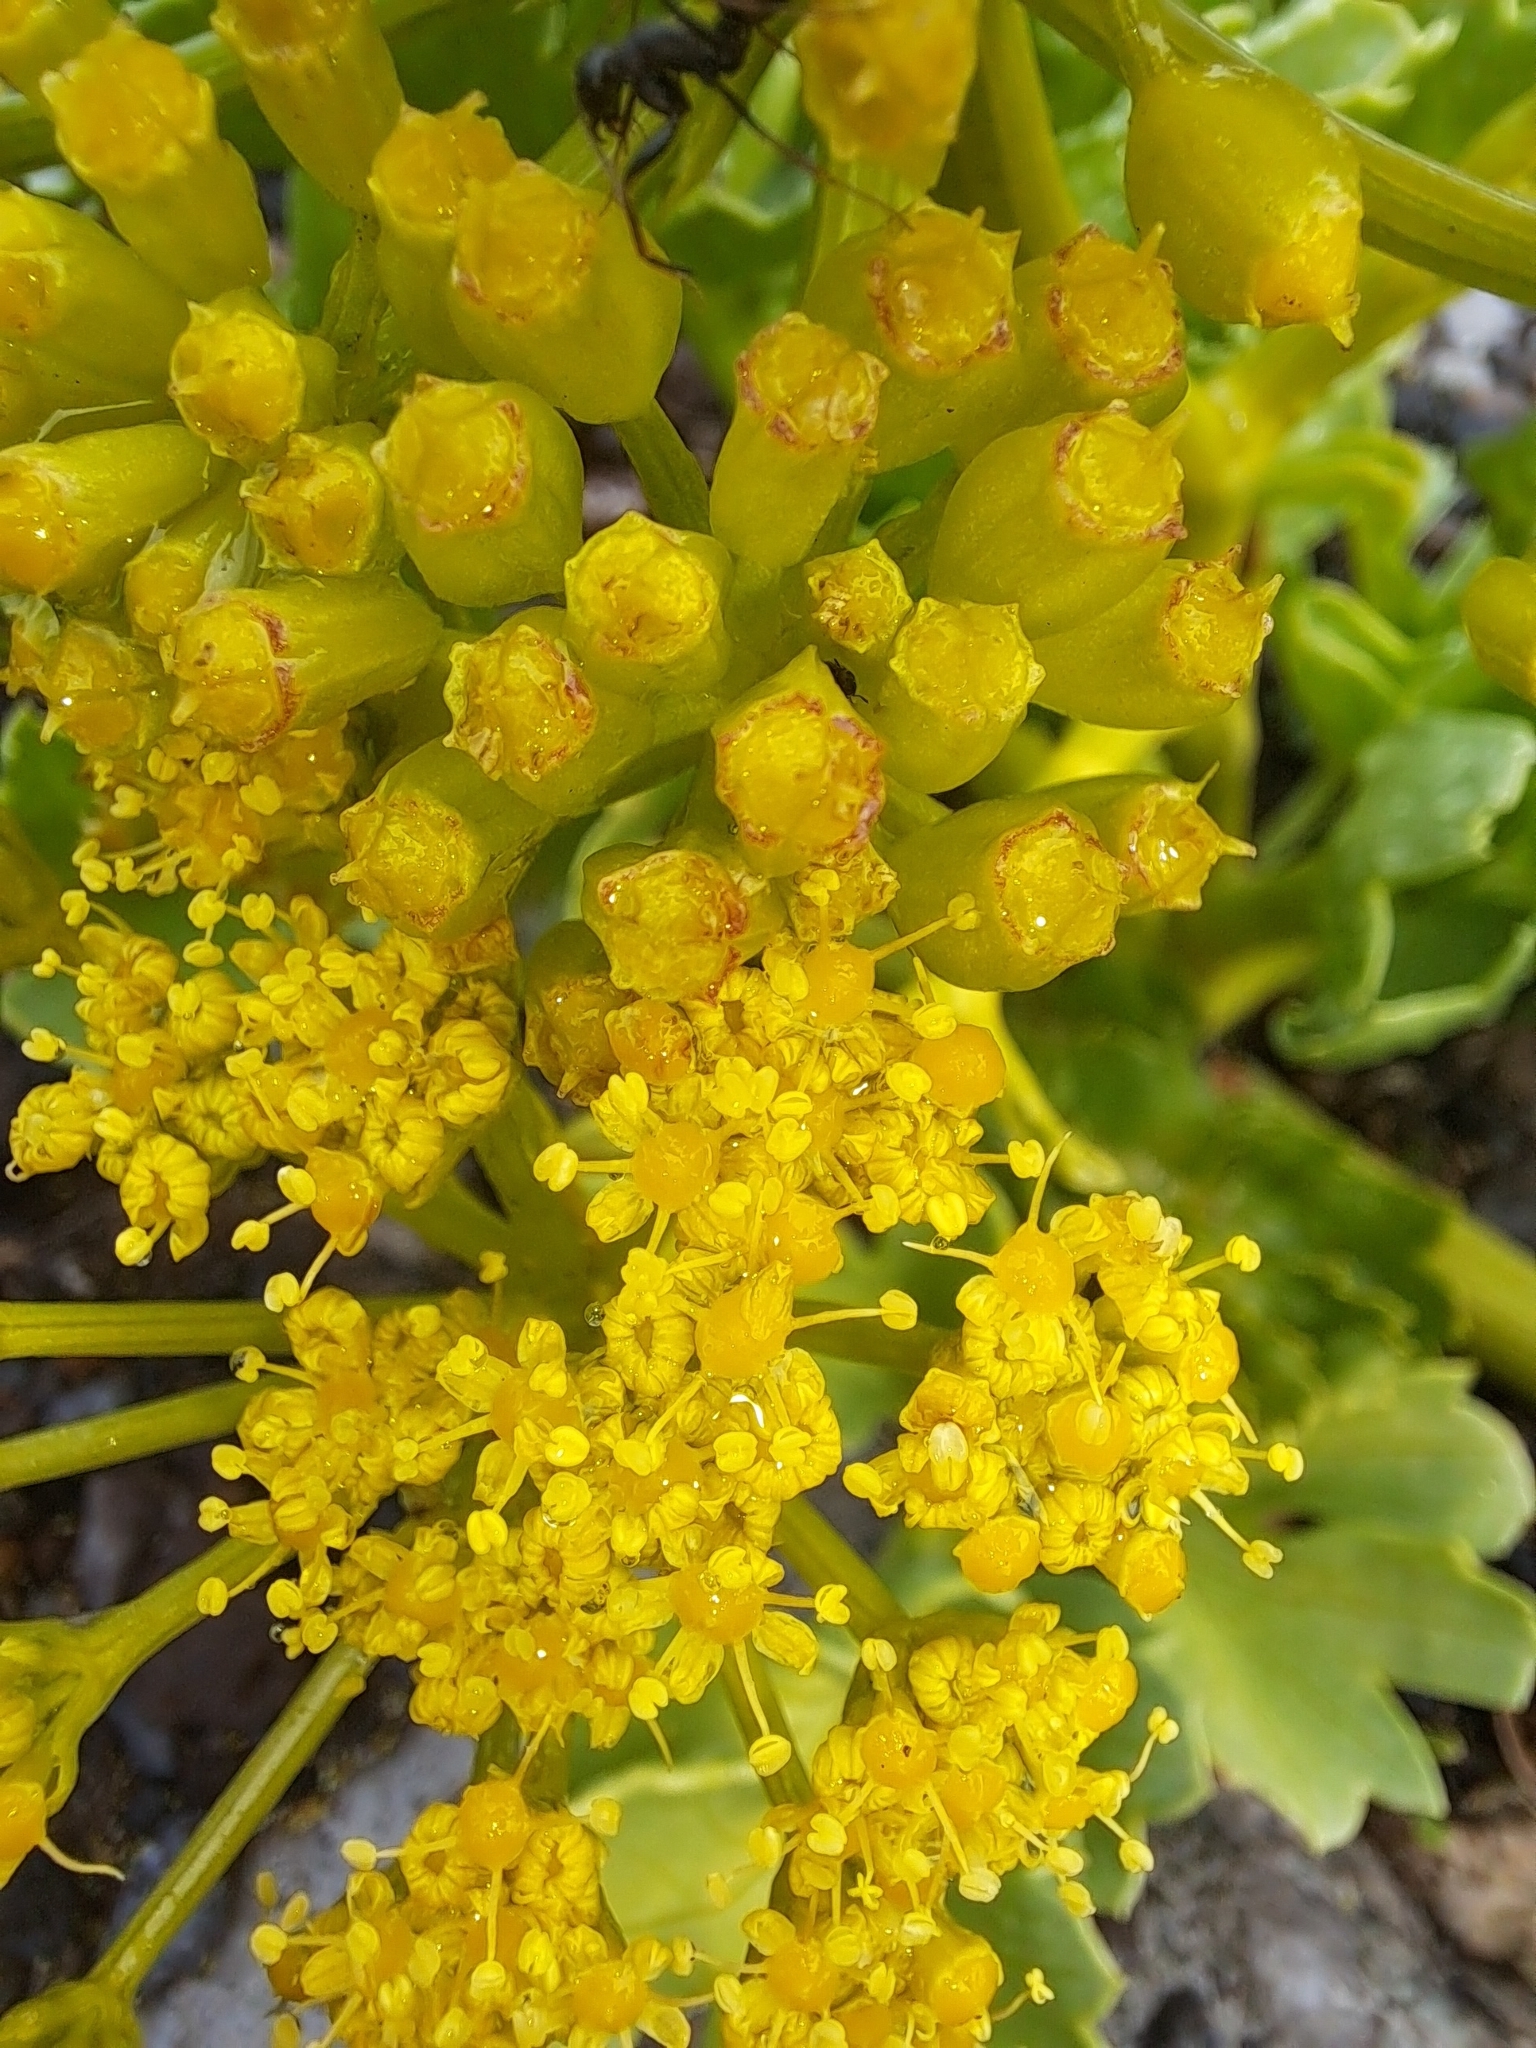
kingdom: Plantae
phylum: Tracheophyta
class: Magnoliopsida
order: Apiales
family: Apiaceae
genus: Astydamia
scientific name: Astydamia latifolia
